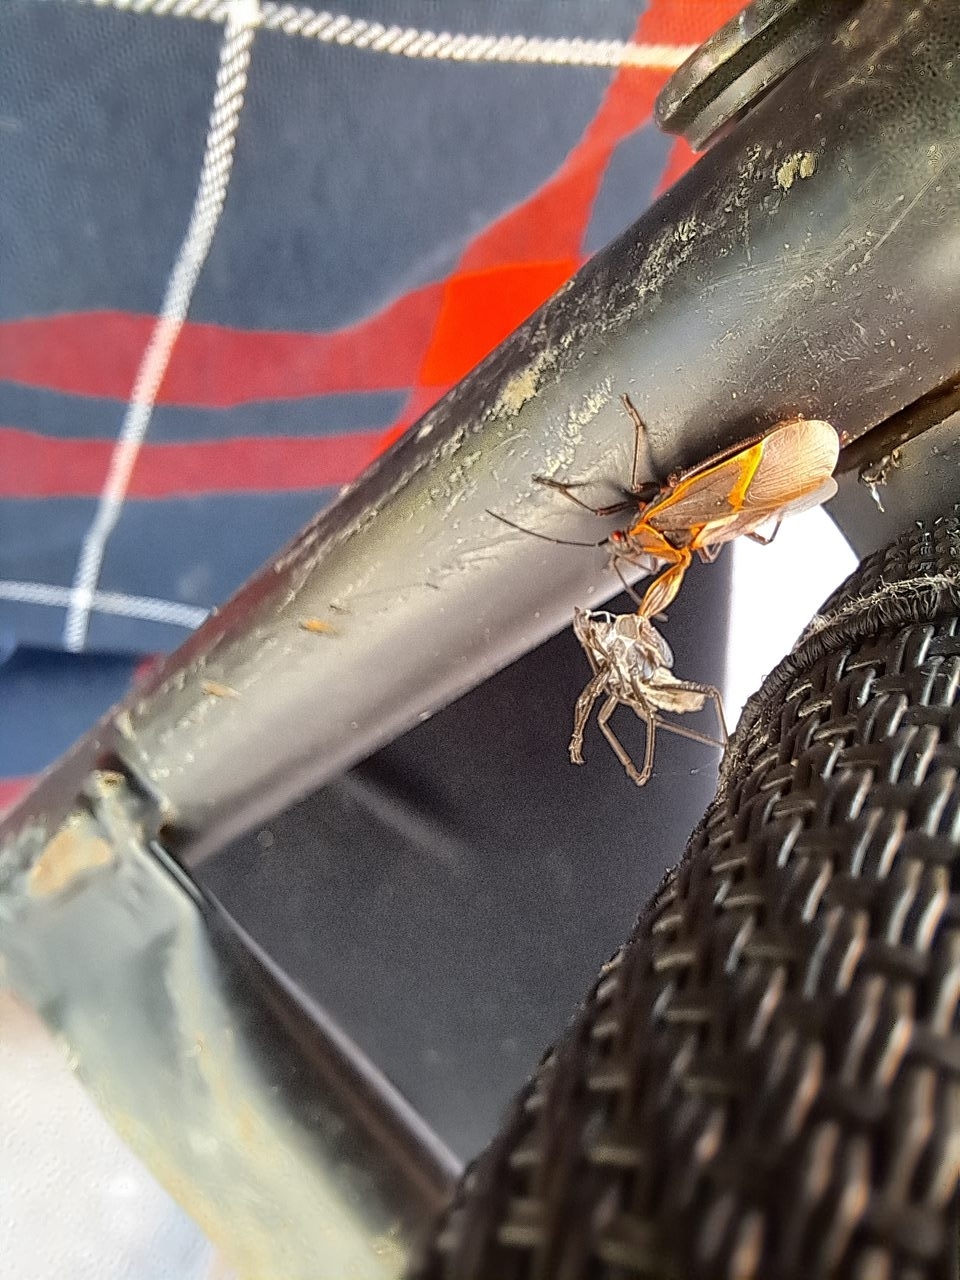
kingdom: Animalia
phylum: Arthropoda
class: Insecta
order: Hemiptera
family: Rhopalidae
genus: Boisea
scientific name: Boisea trivittata
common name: Boxelder bug
